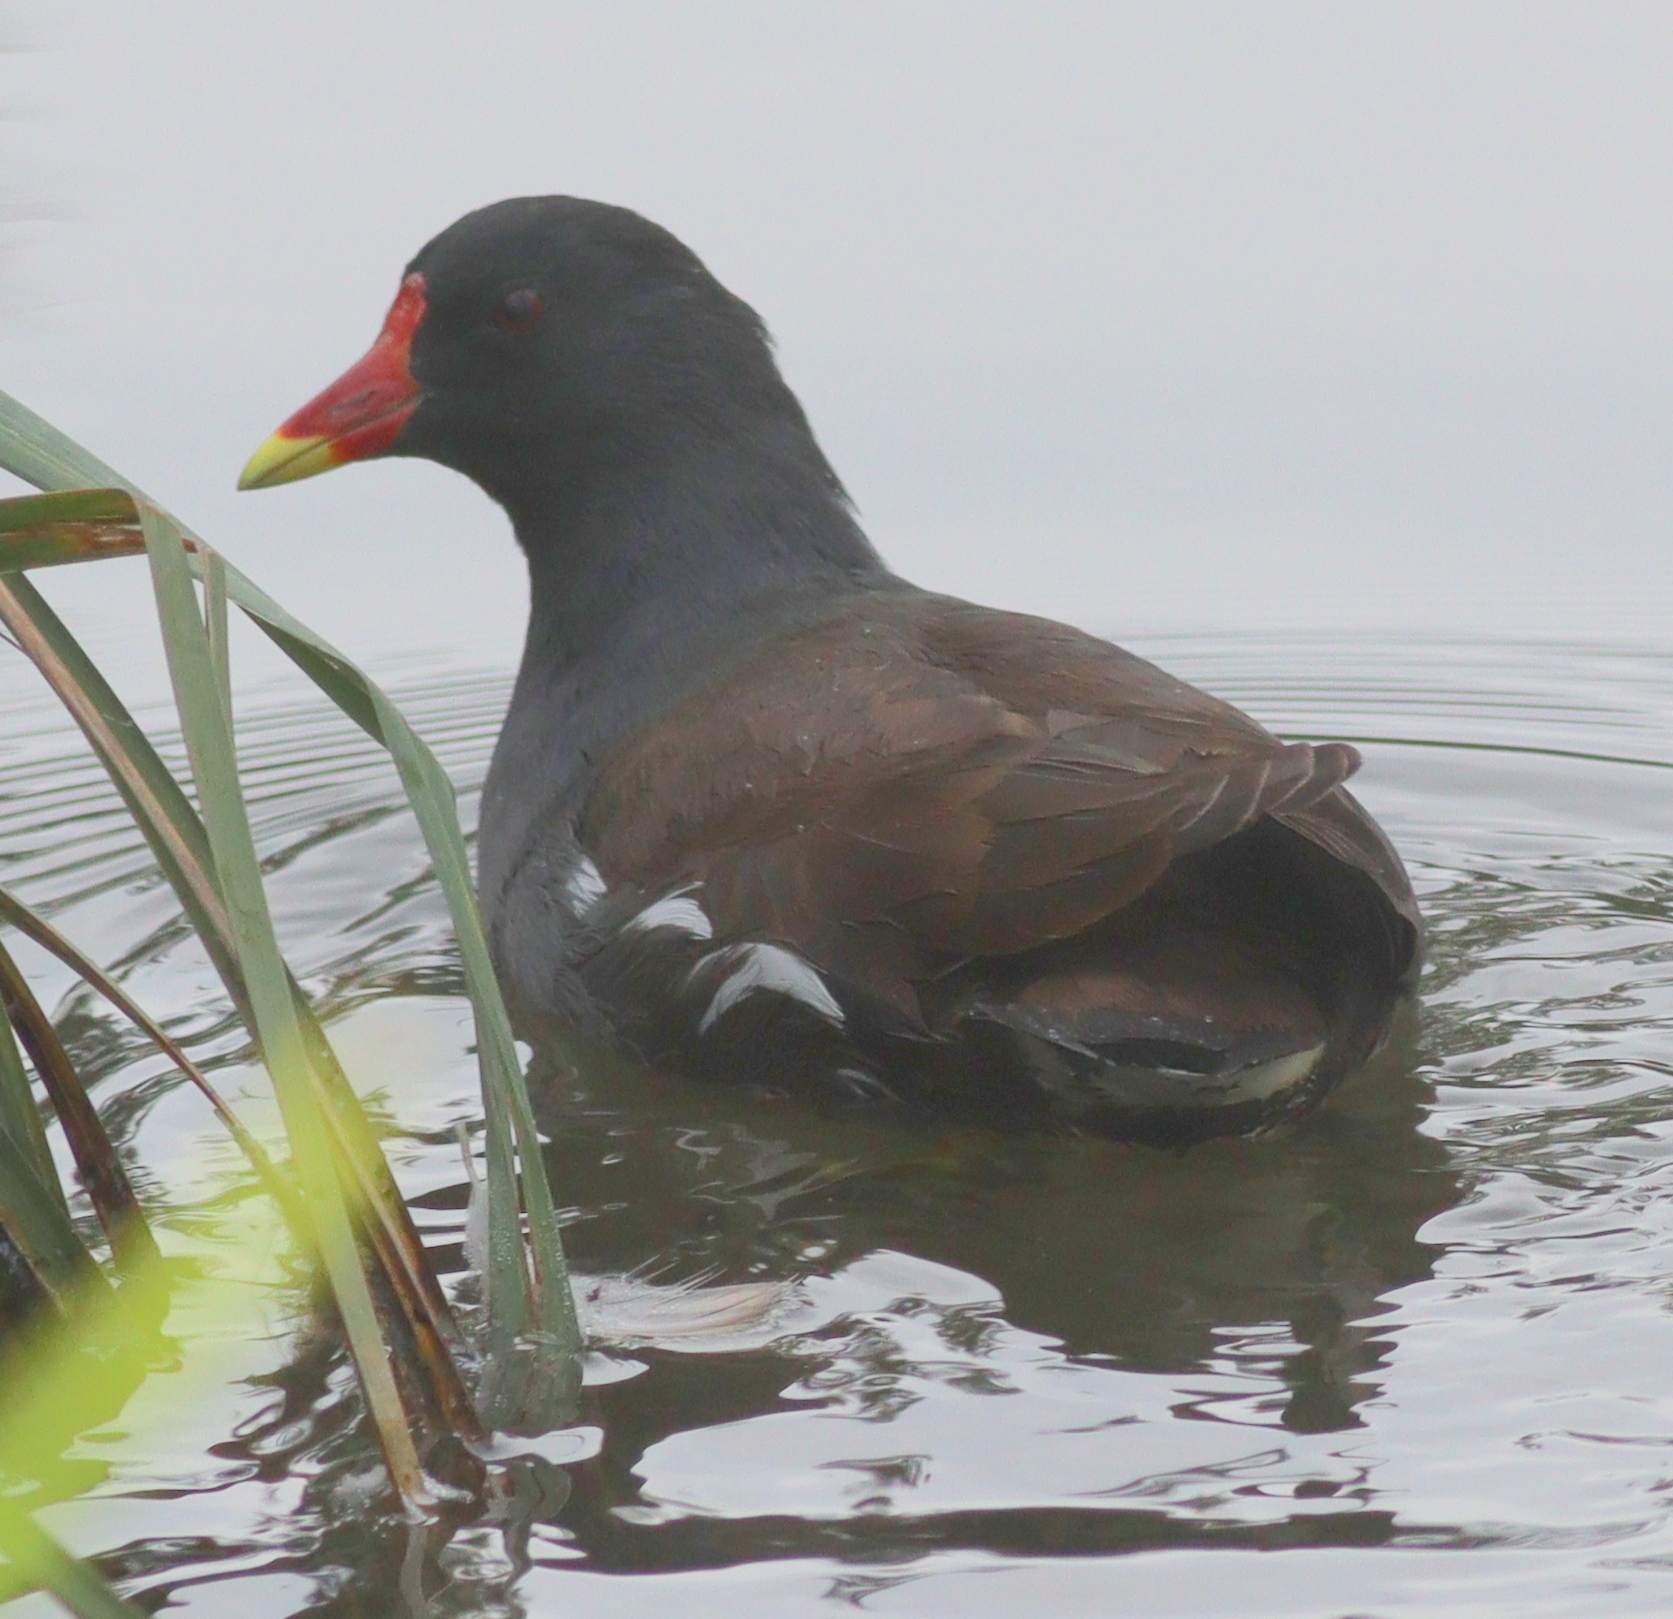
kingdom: Animalia
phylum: Chordata
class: Aves
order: Gruiformes
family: Rallidae
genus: Gallinula
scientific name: Gallinula chloropus
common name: Common moorhen
